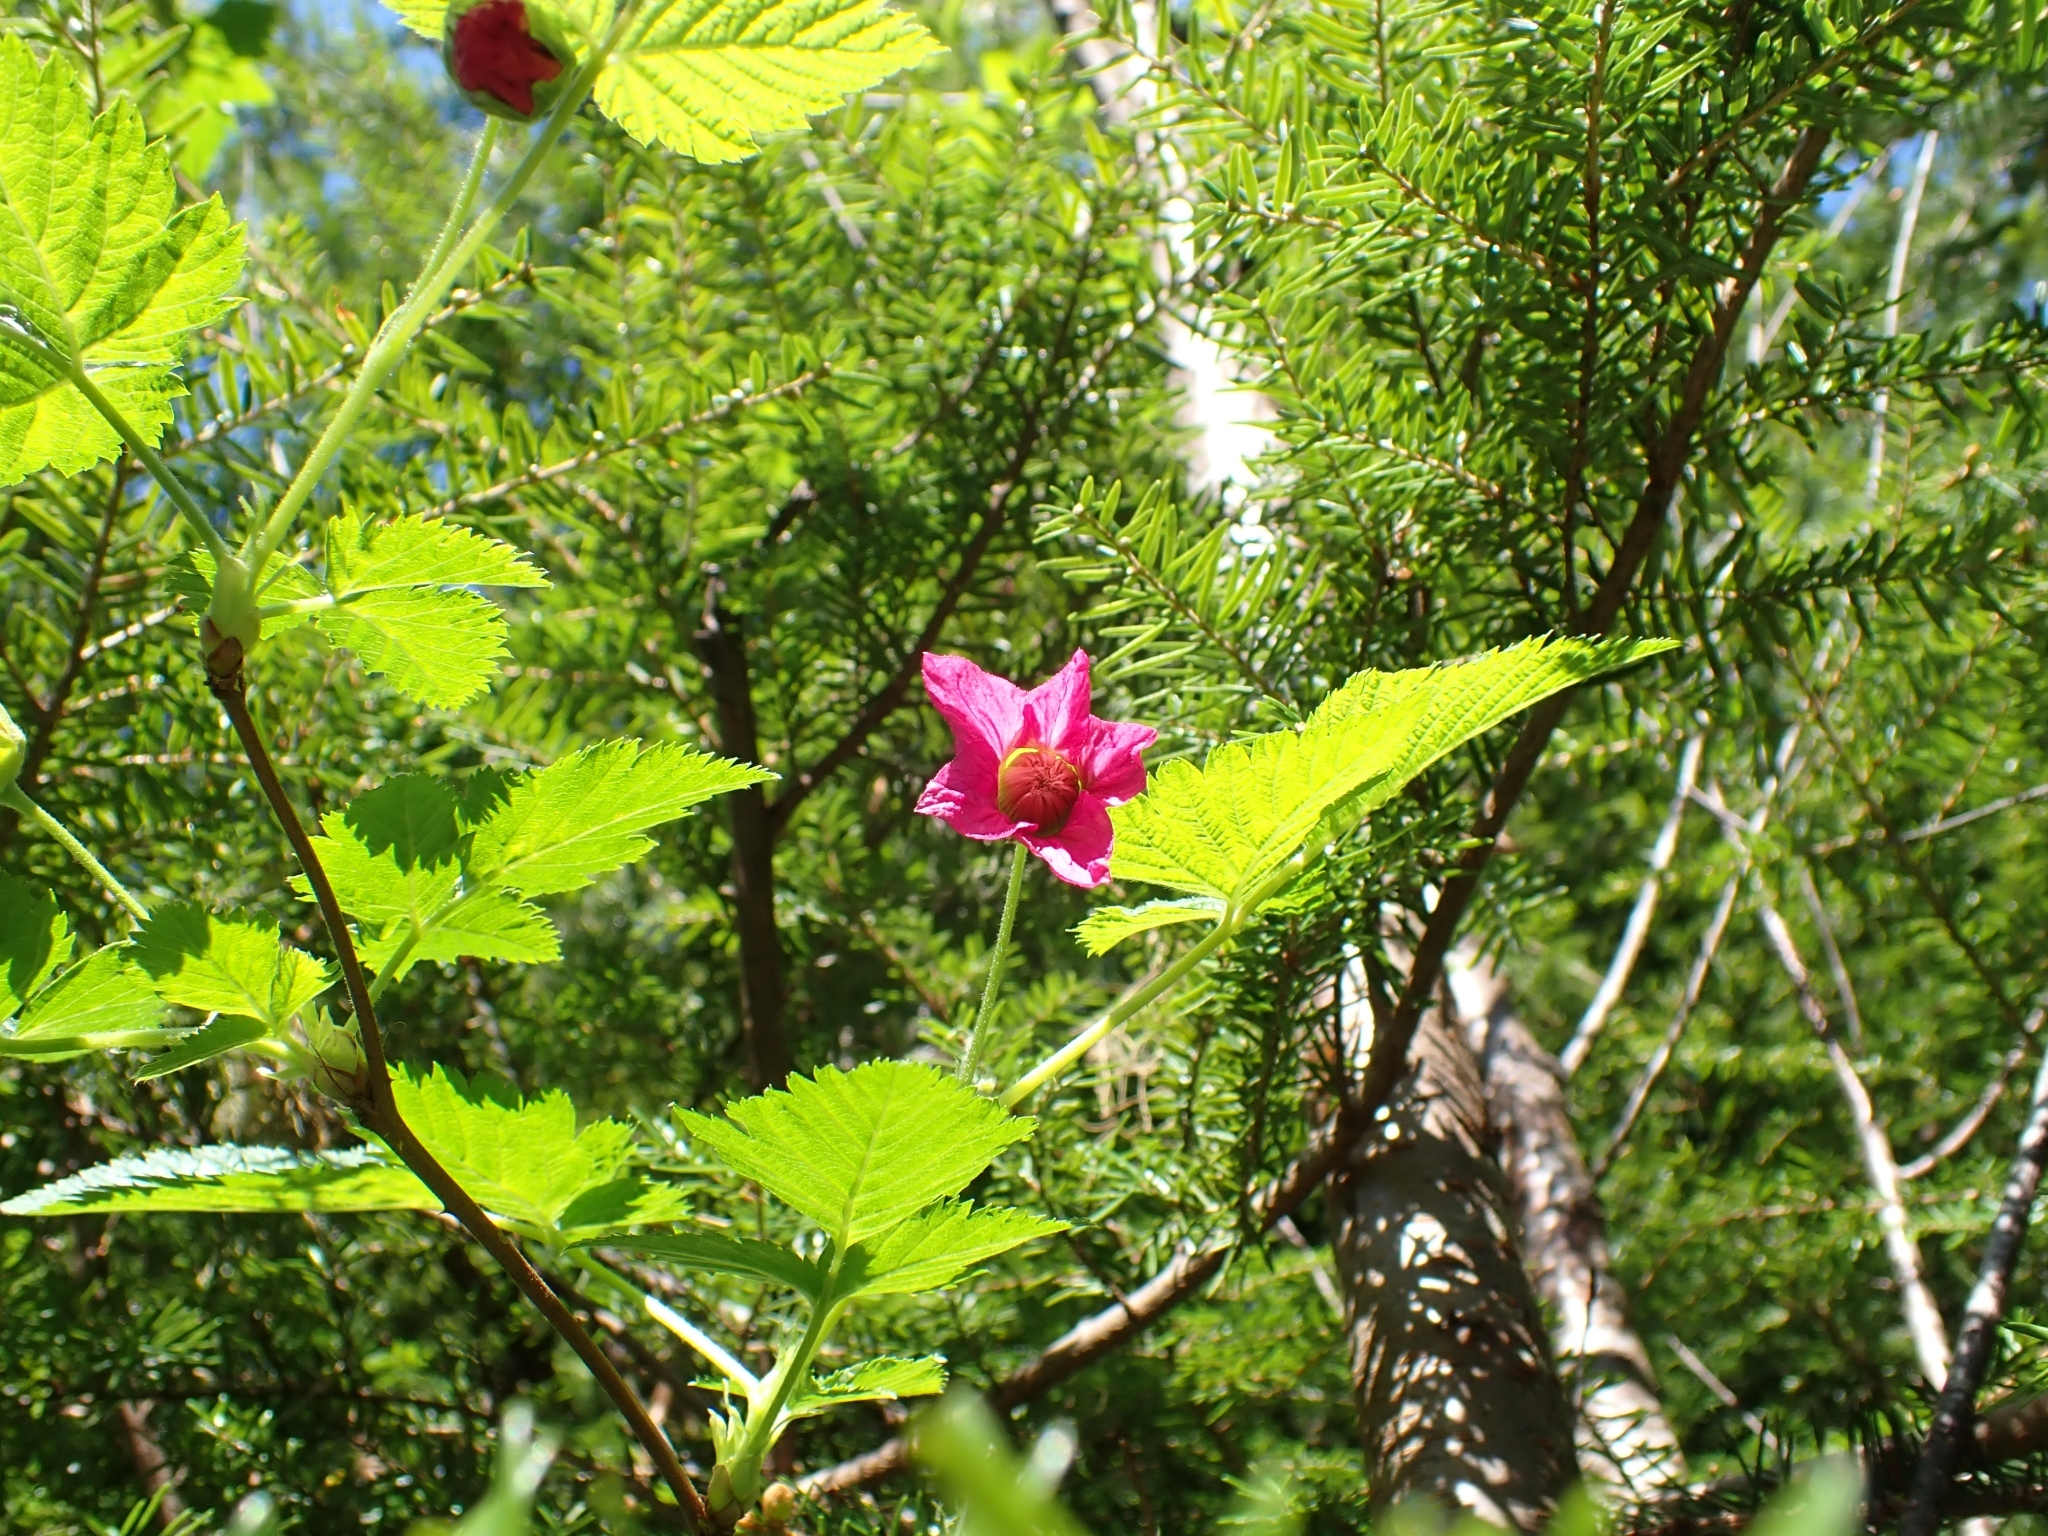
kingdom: Plantae
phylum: Tracheophyta
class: Magnoliopsida
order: Rosales
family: Rosaceae
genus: Rubus
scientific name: Rubus spectabilis
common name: Salmonberry
